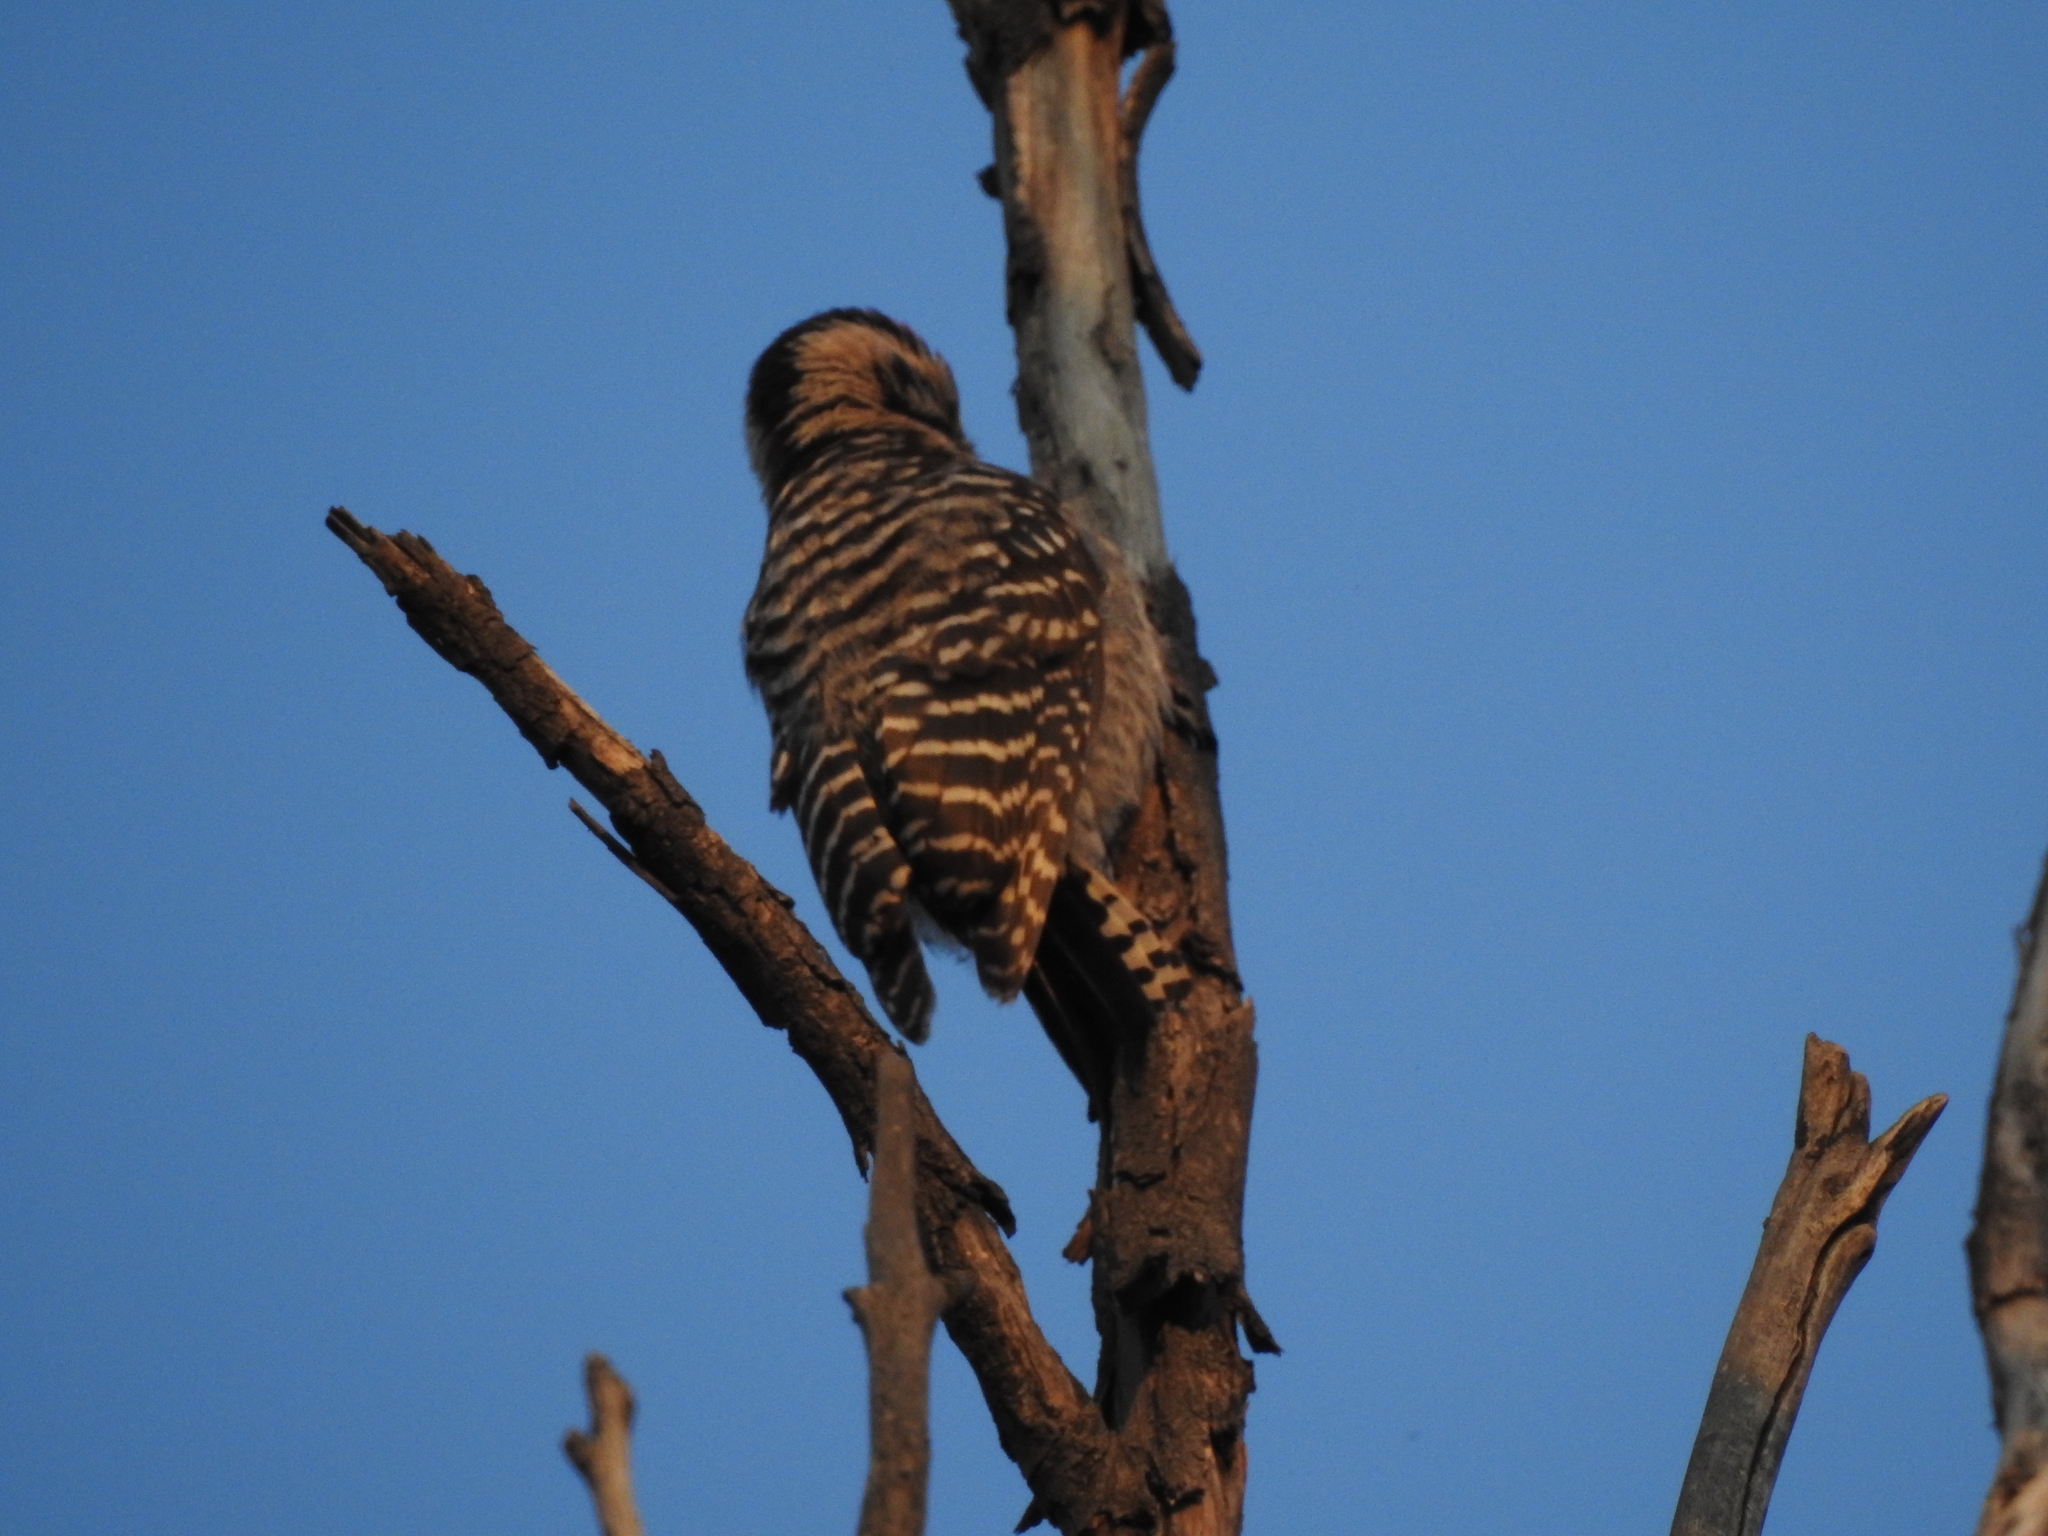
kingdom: Animalia
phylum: Chordata
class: Aves
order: Piciformes
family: Picidae
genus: Dryobates
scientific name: Dryobates scalaris
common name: Ladder-backed woodpecker
